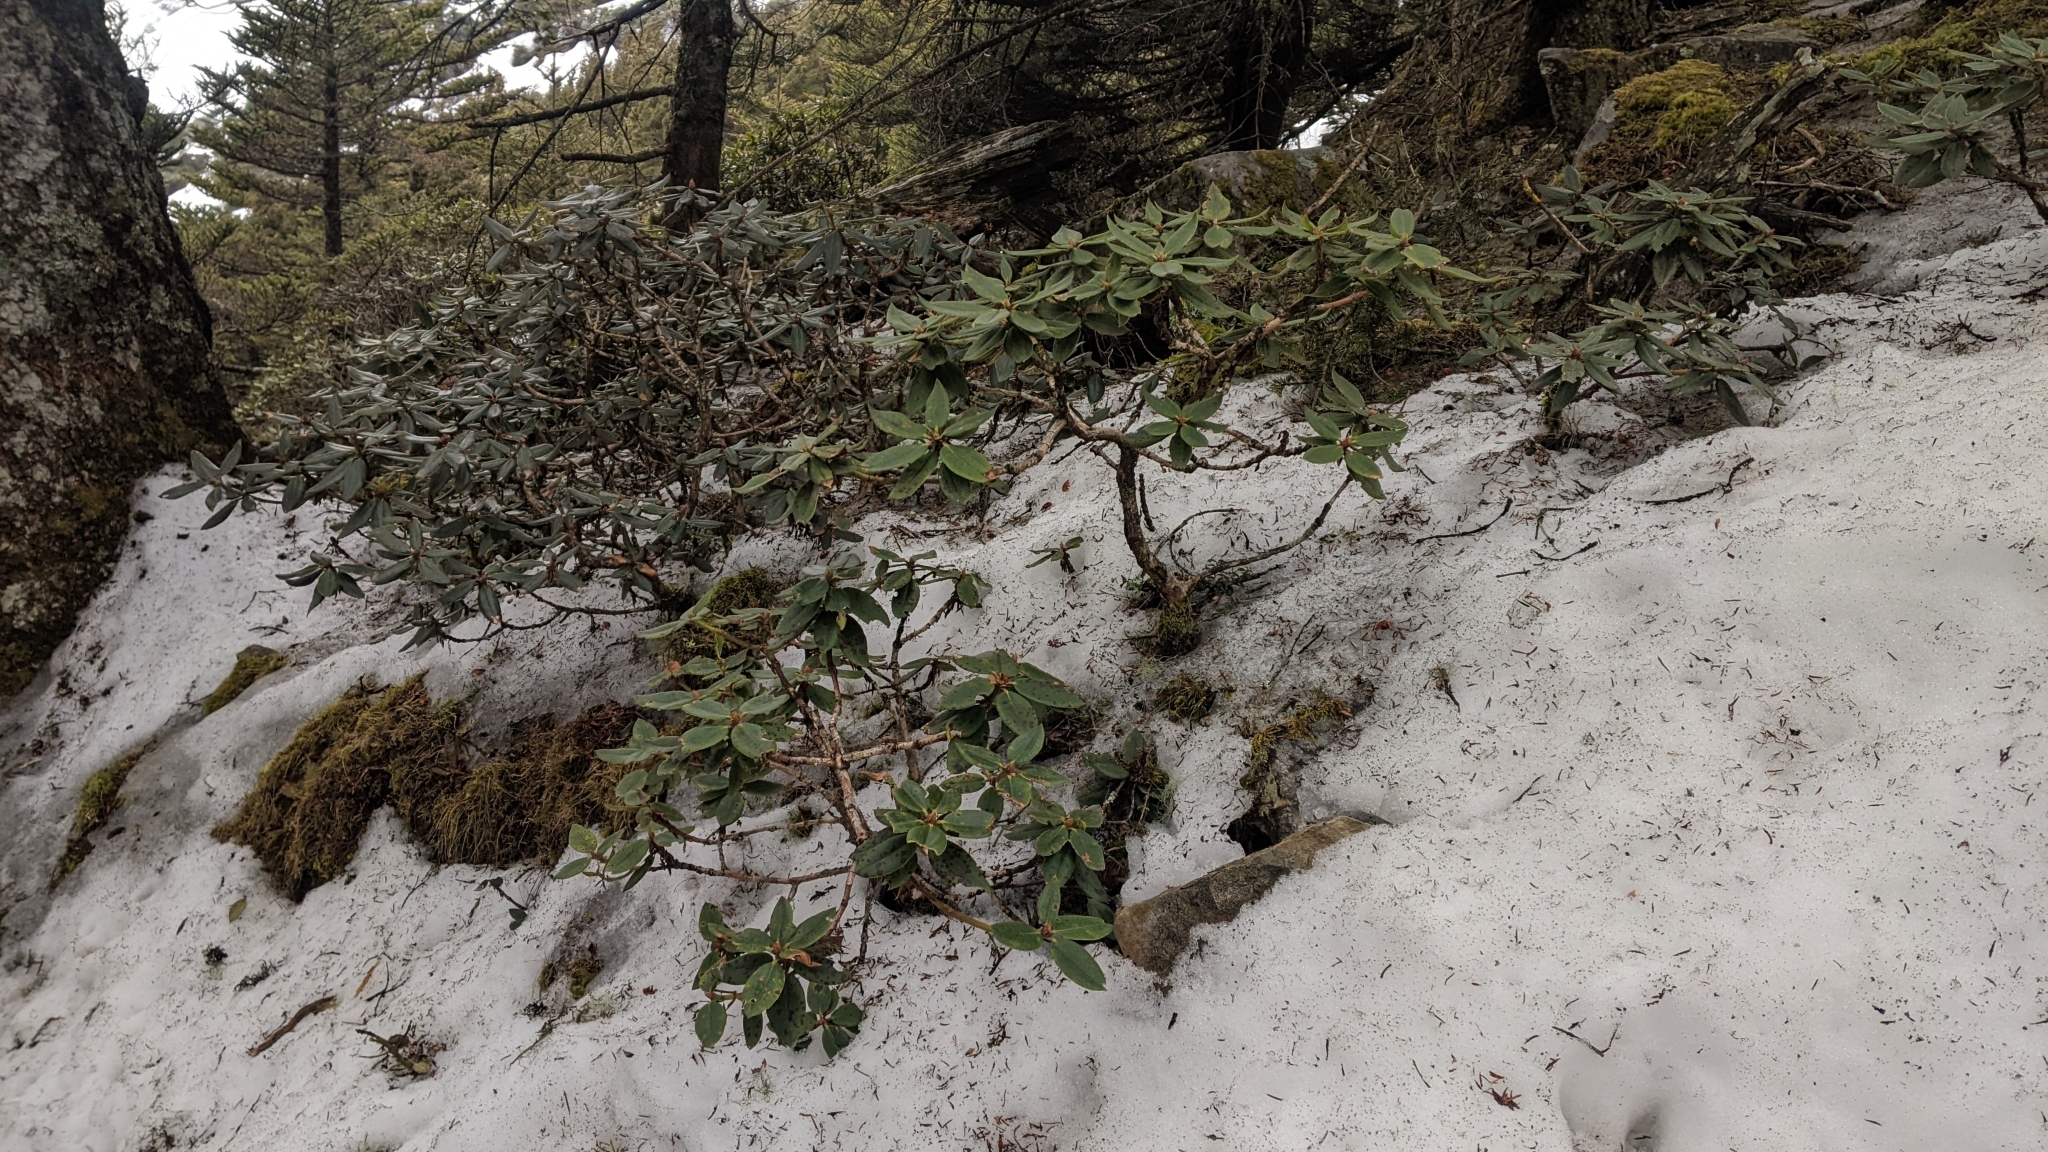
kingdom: Plantae
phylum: Tracheophyta
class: Magnoliopsida
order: Ericales
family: Ericaceae
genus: Rhododendron
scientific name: Rhododendron pseudochrysanthum
